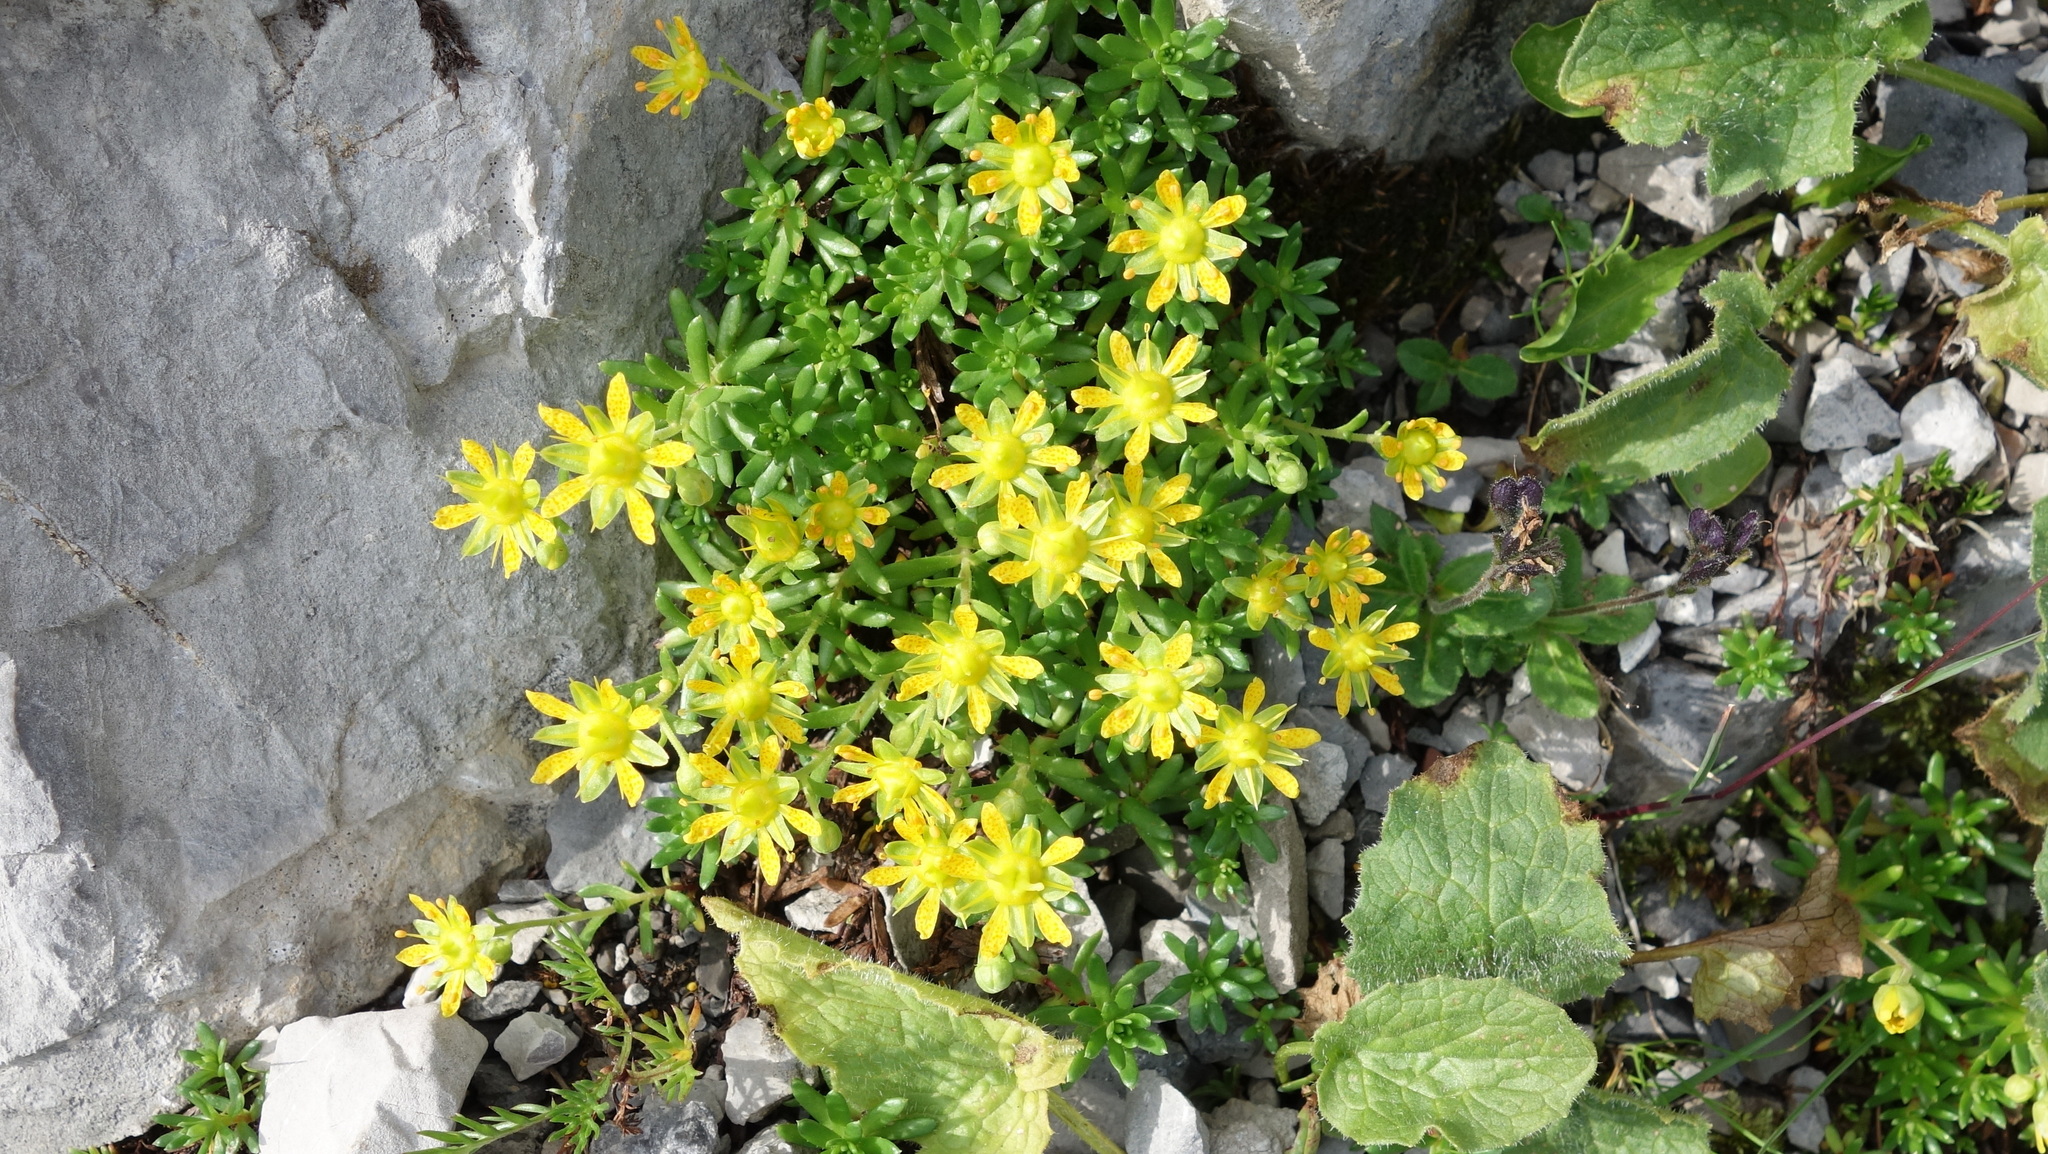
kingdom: Plantae
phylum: Tracheophyta
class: Magnoliopsida
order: Saxifragales
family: Saxifragaceae
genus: Saxifraga
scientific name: Saxifraga aizoides
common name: Yellow mountain saxifrage
